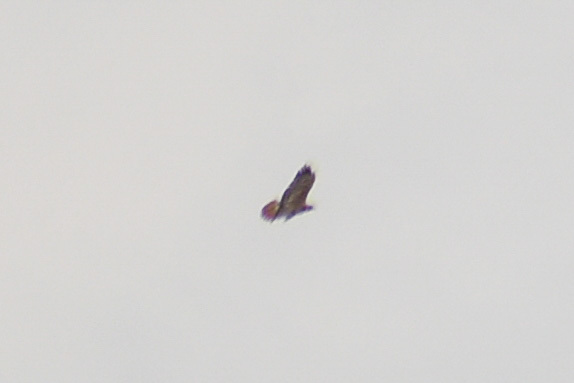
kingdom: Animalia
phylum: Chordata
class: Aves
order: Accipitriformes
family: Accipitridae
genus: Buteo
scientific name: Buteo jamaicensis
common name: Red-tailed hawk
